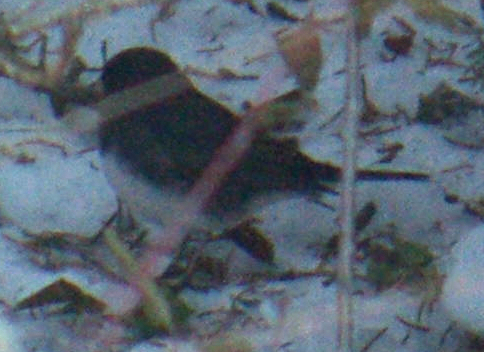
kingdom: Animalia
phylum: Chordata
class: Aves
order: Passeriformes
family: Passerellidae
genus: Junco
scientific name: Junco hyemalis
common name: Dark-eyed junco
